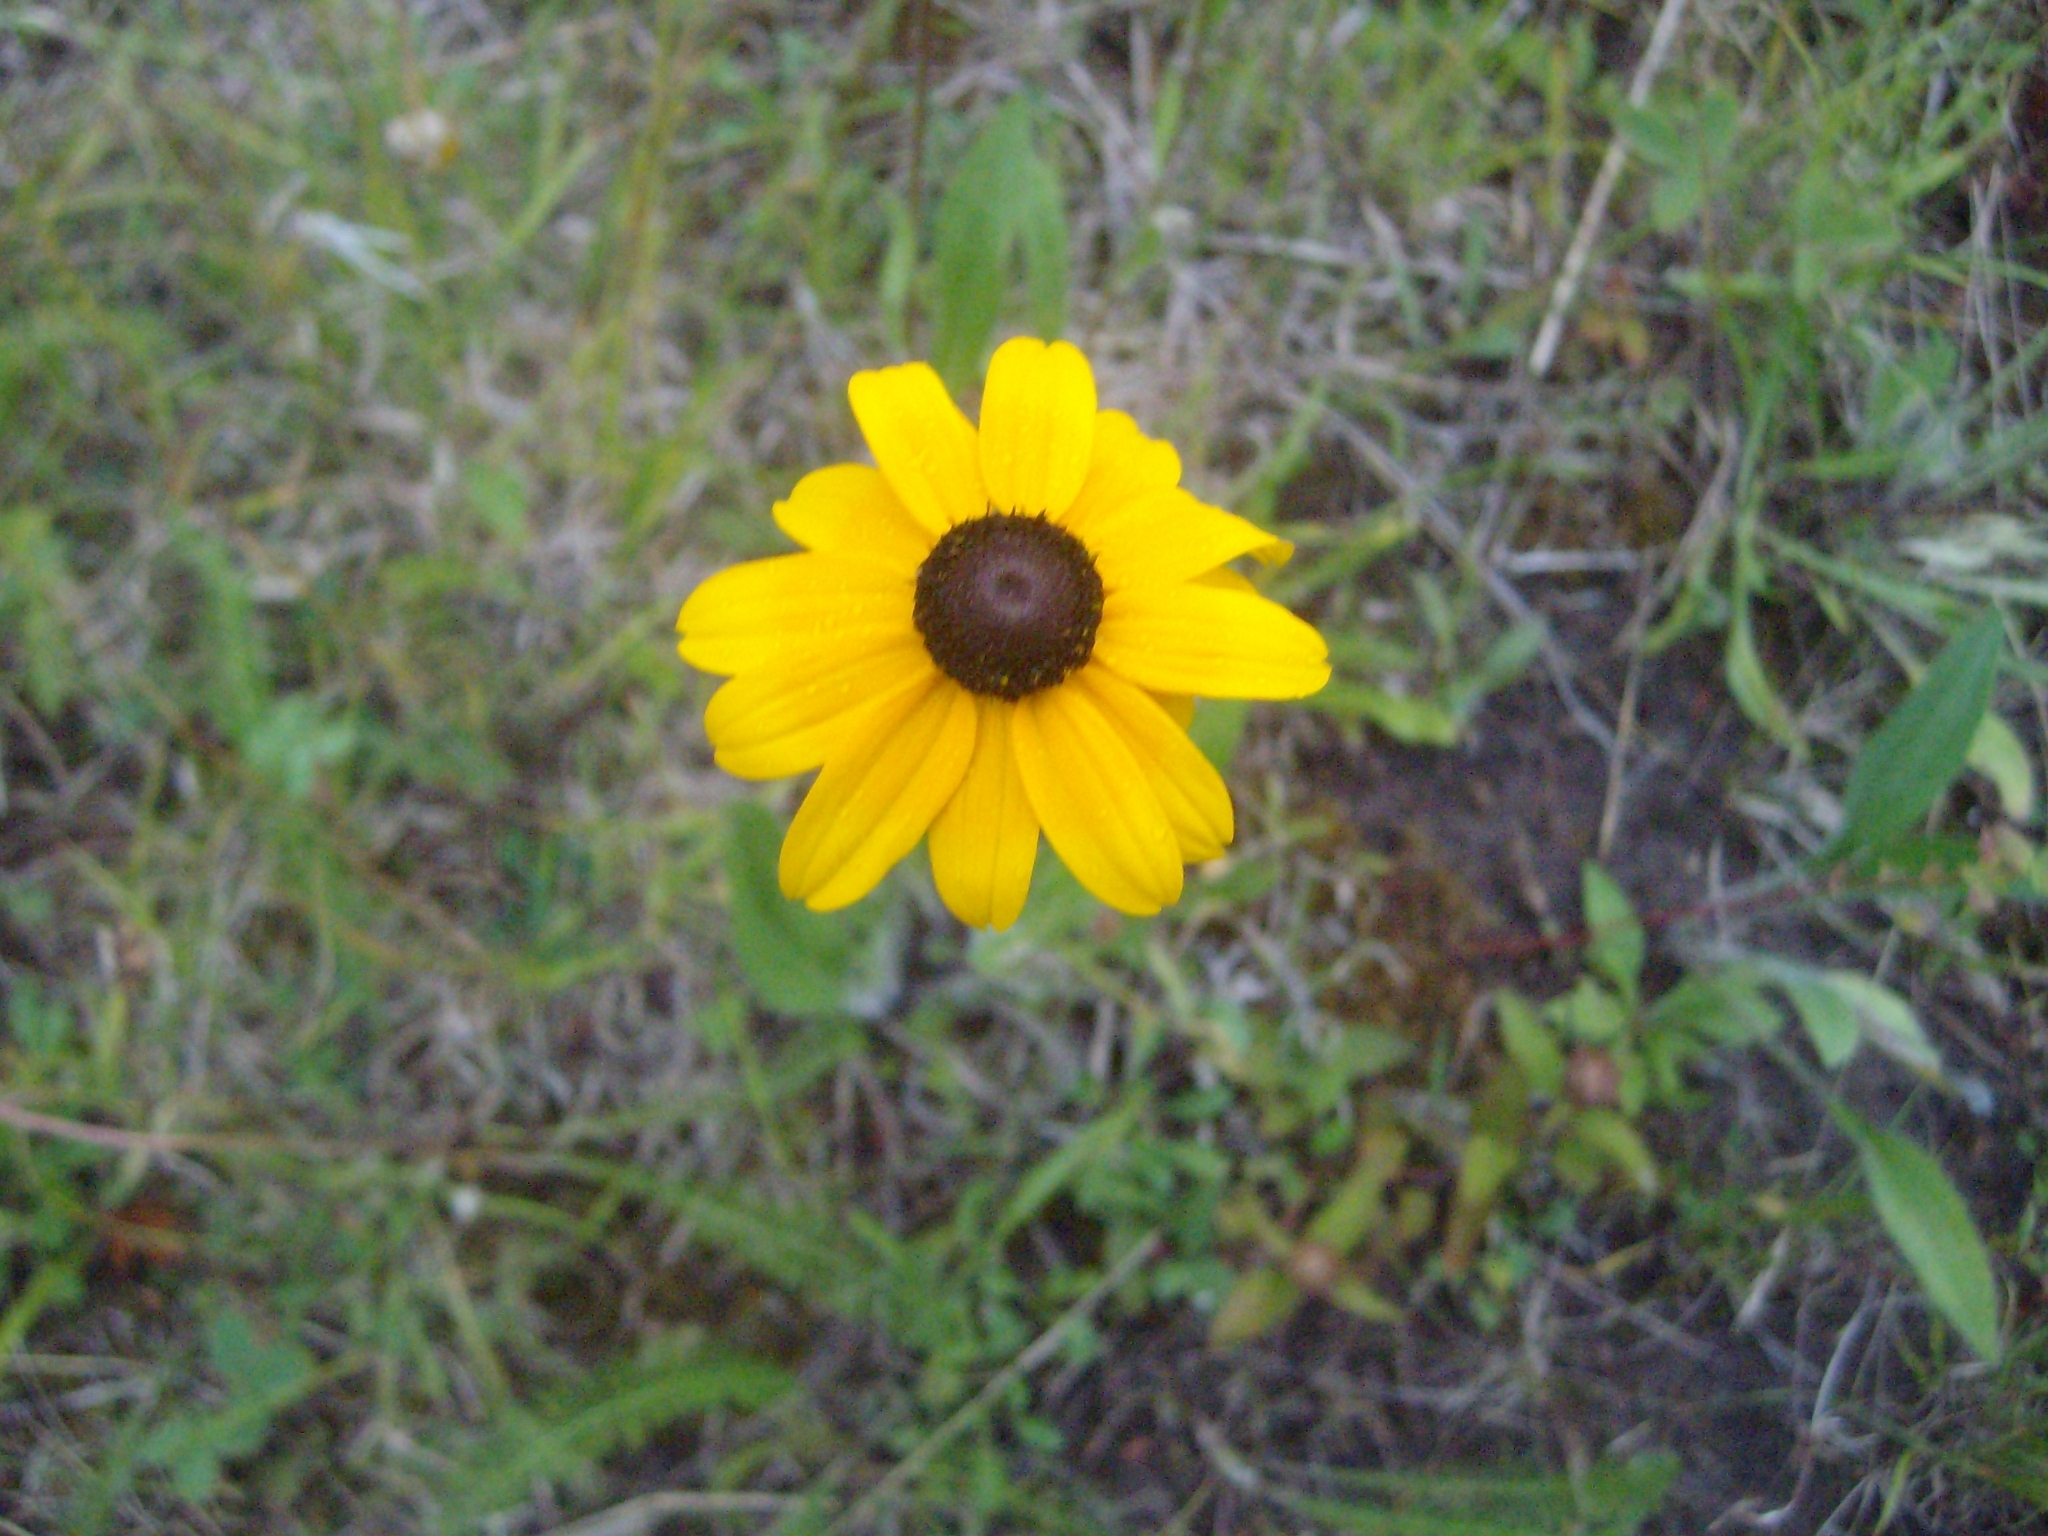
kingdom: Plantae
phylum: Tracheophyta
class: Magnoliopsida
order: Asterales
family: Asteraceae
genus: Rudbeckia
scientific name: Rudbeckia hirta
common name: Black-eyed-susan
